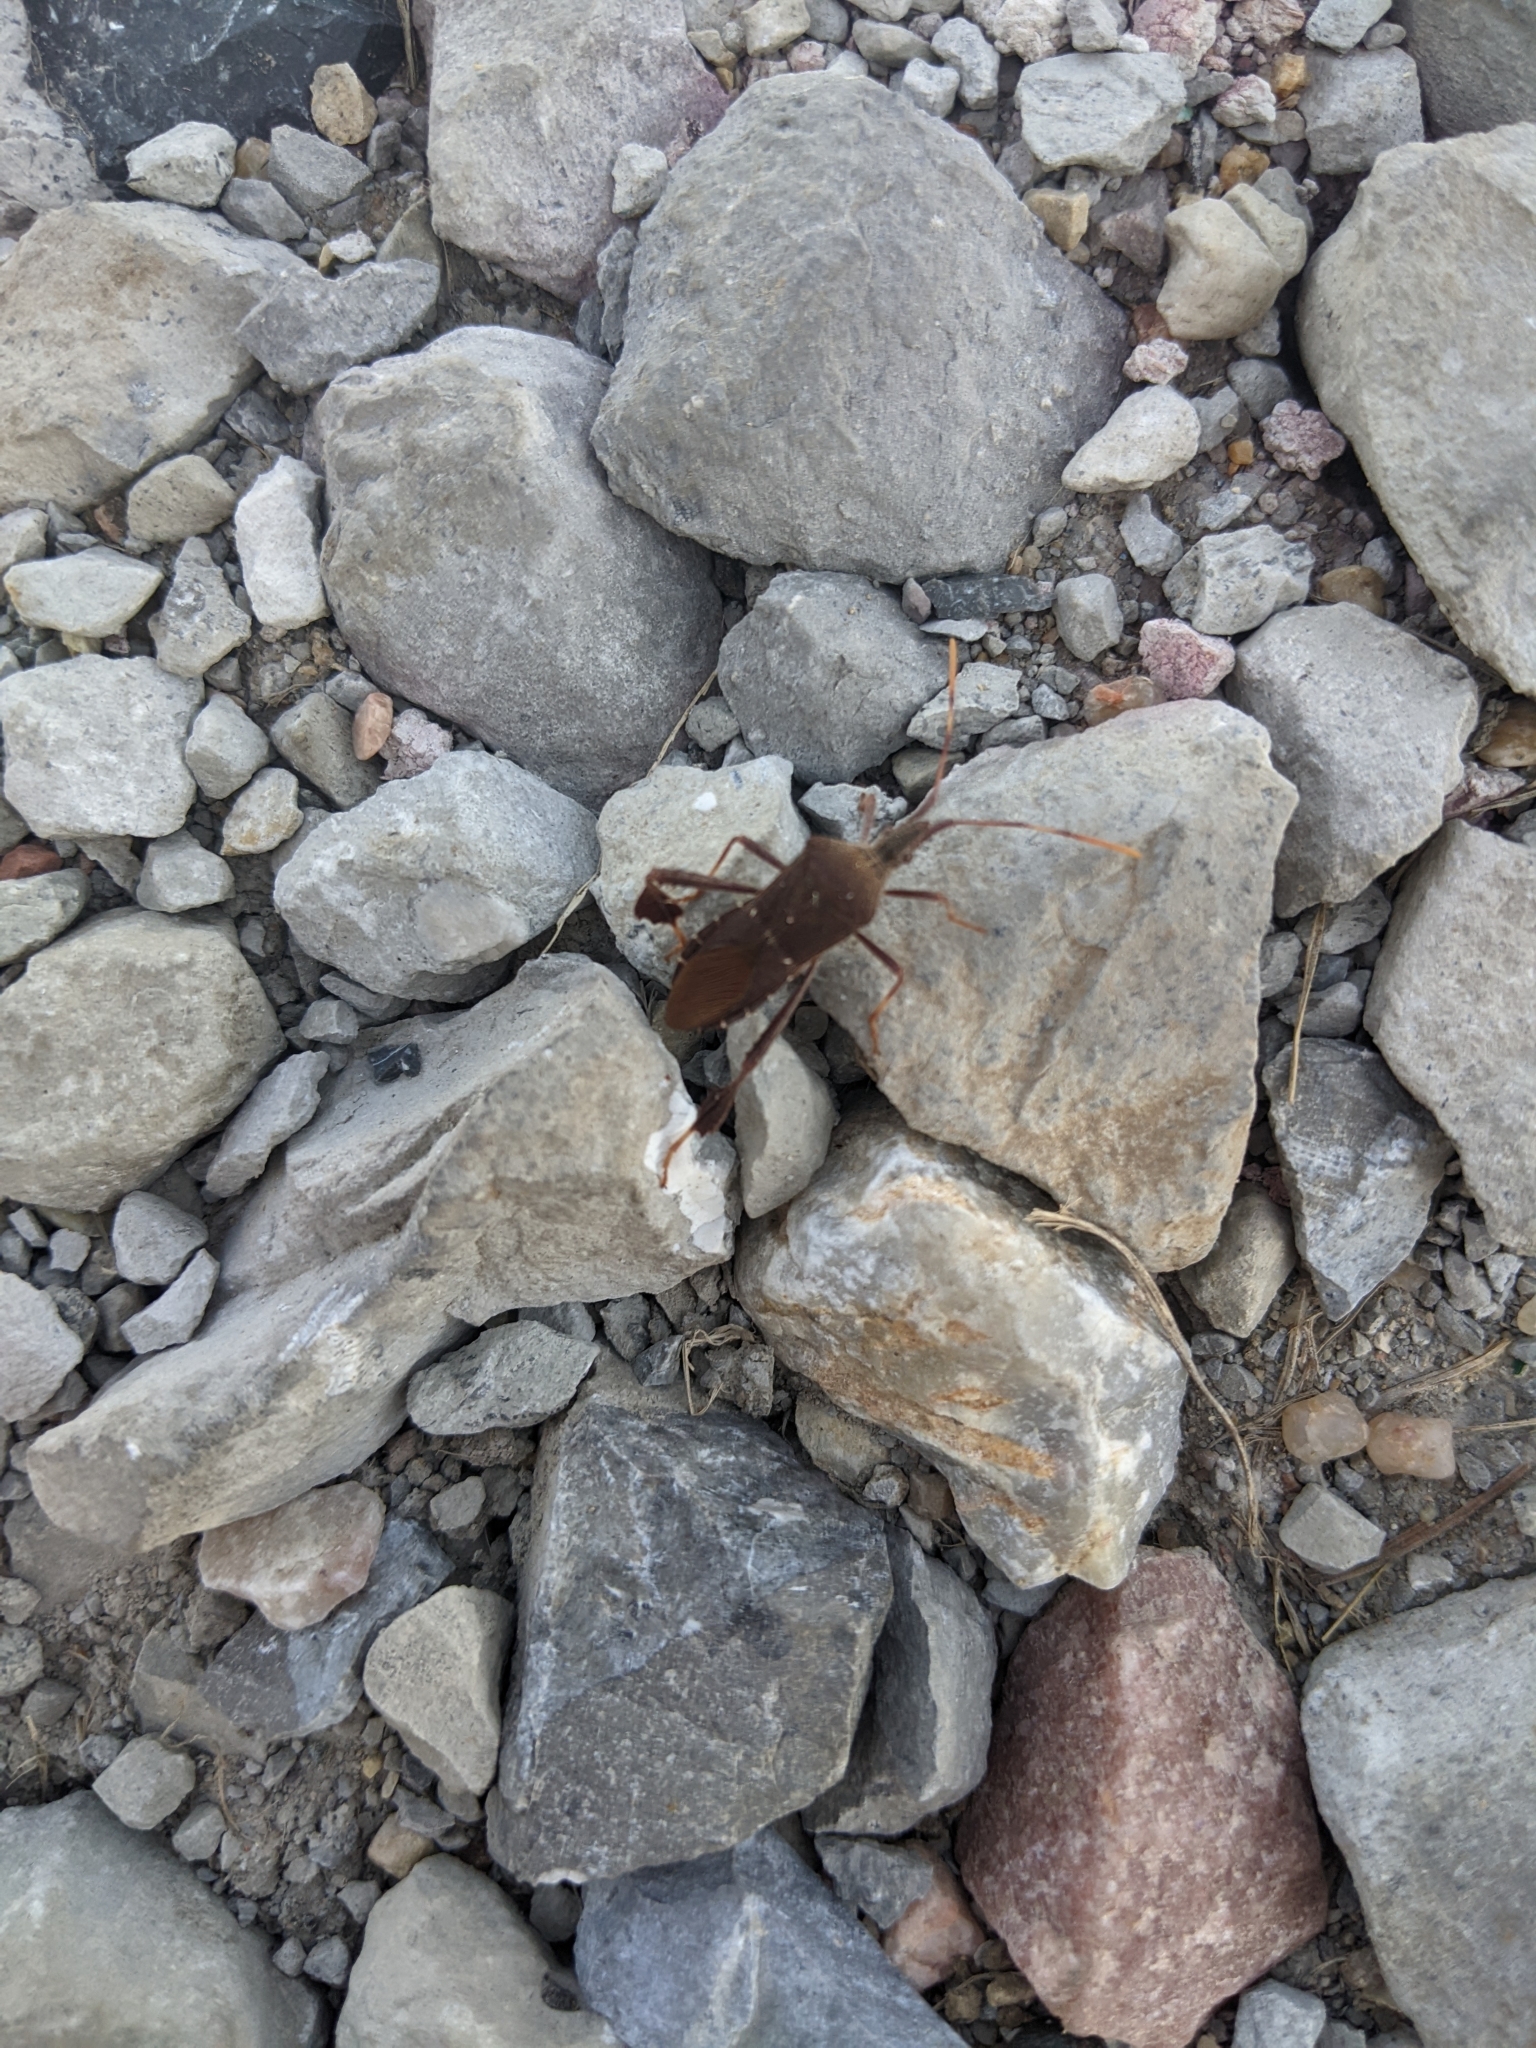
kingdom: Animalia
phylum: Arthropoda
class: Insecta
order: Hemiptera
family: Coreidae
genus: Leptoglossus
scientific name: Leptoglossus oppositus
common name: Northern leaf-footed bug
